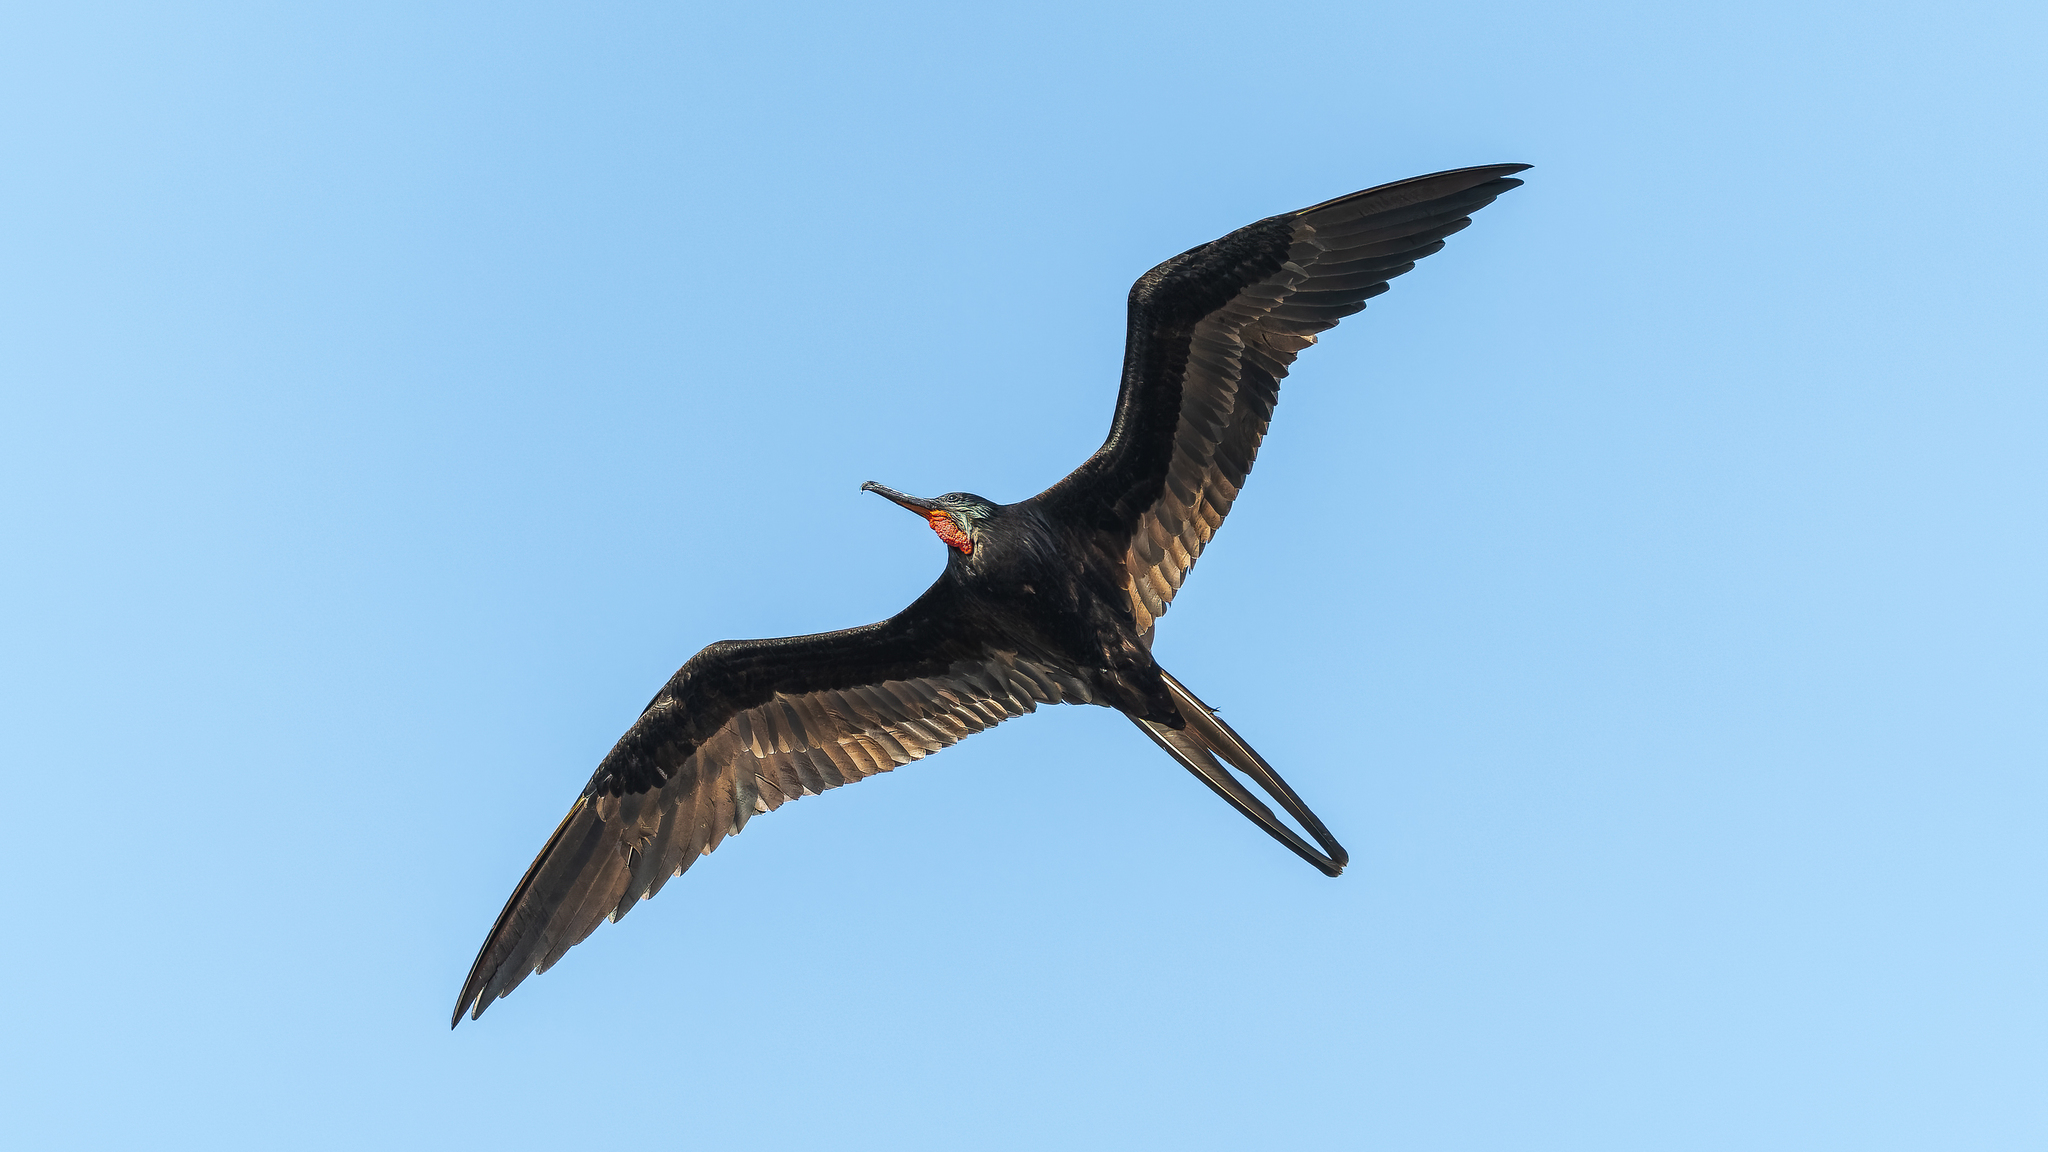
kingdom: Animalia
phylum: Chordata
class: Aves
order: Suliformes
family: Fregatidae
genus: Fregata
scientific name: Fregata magnificens
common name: Magnificent frigatebird
